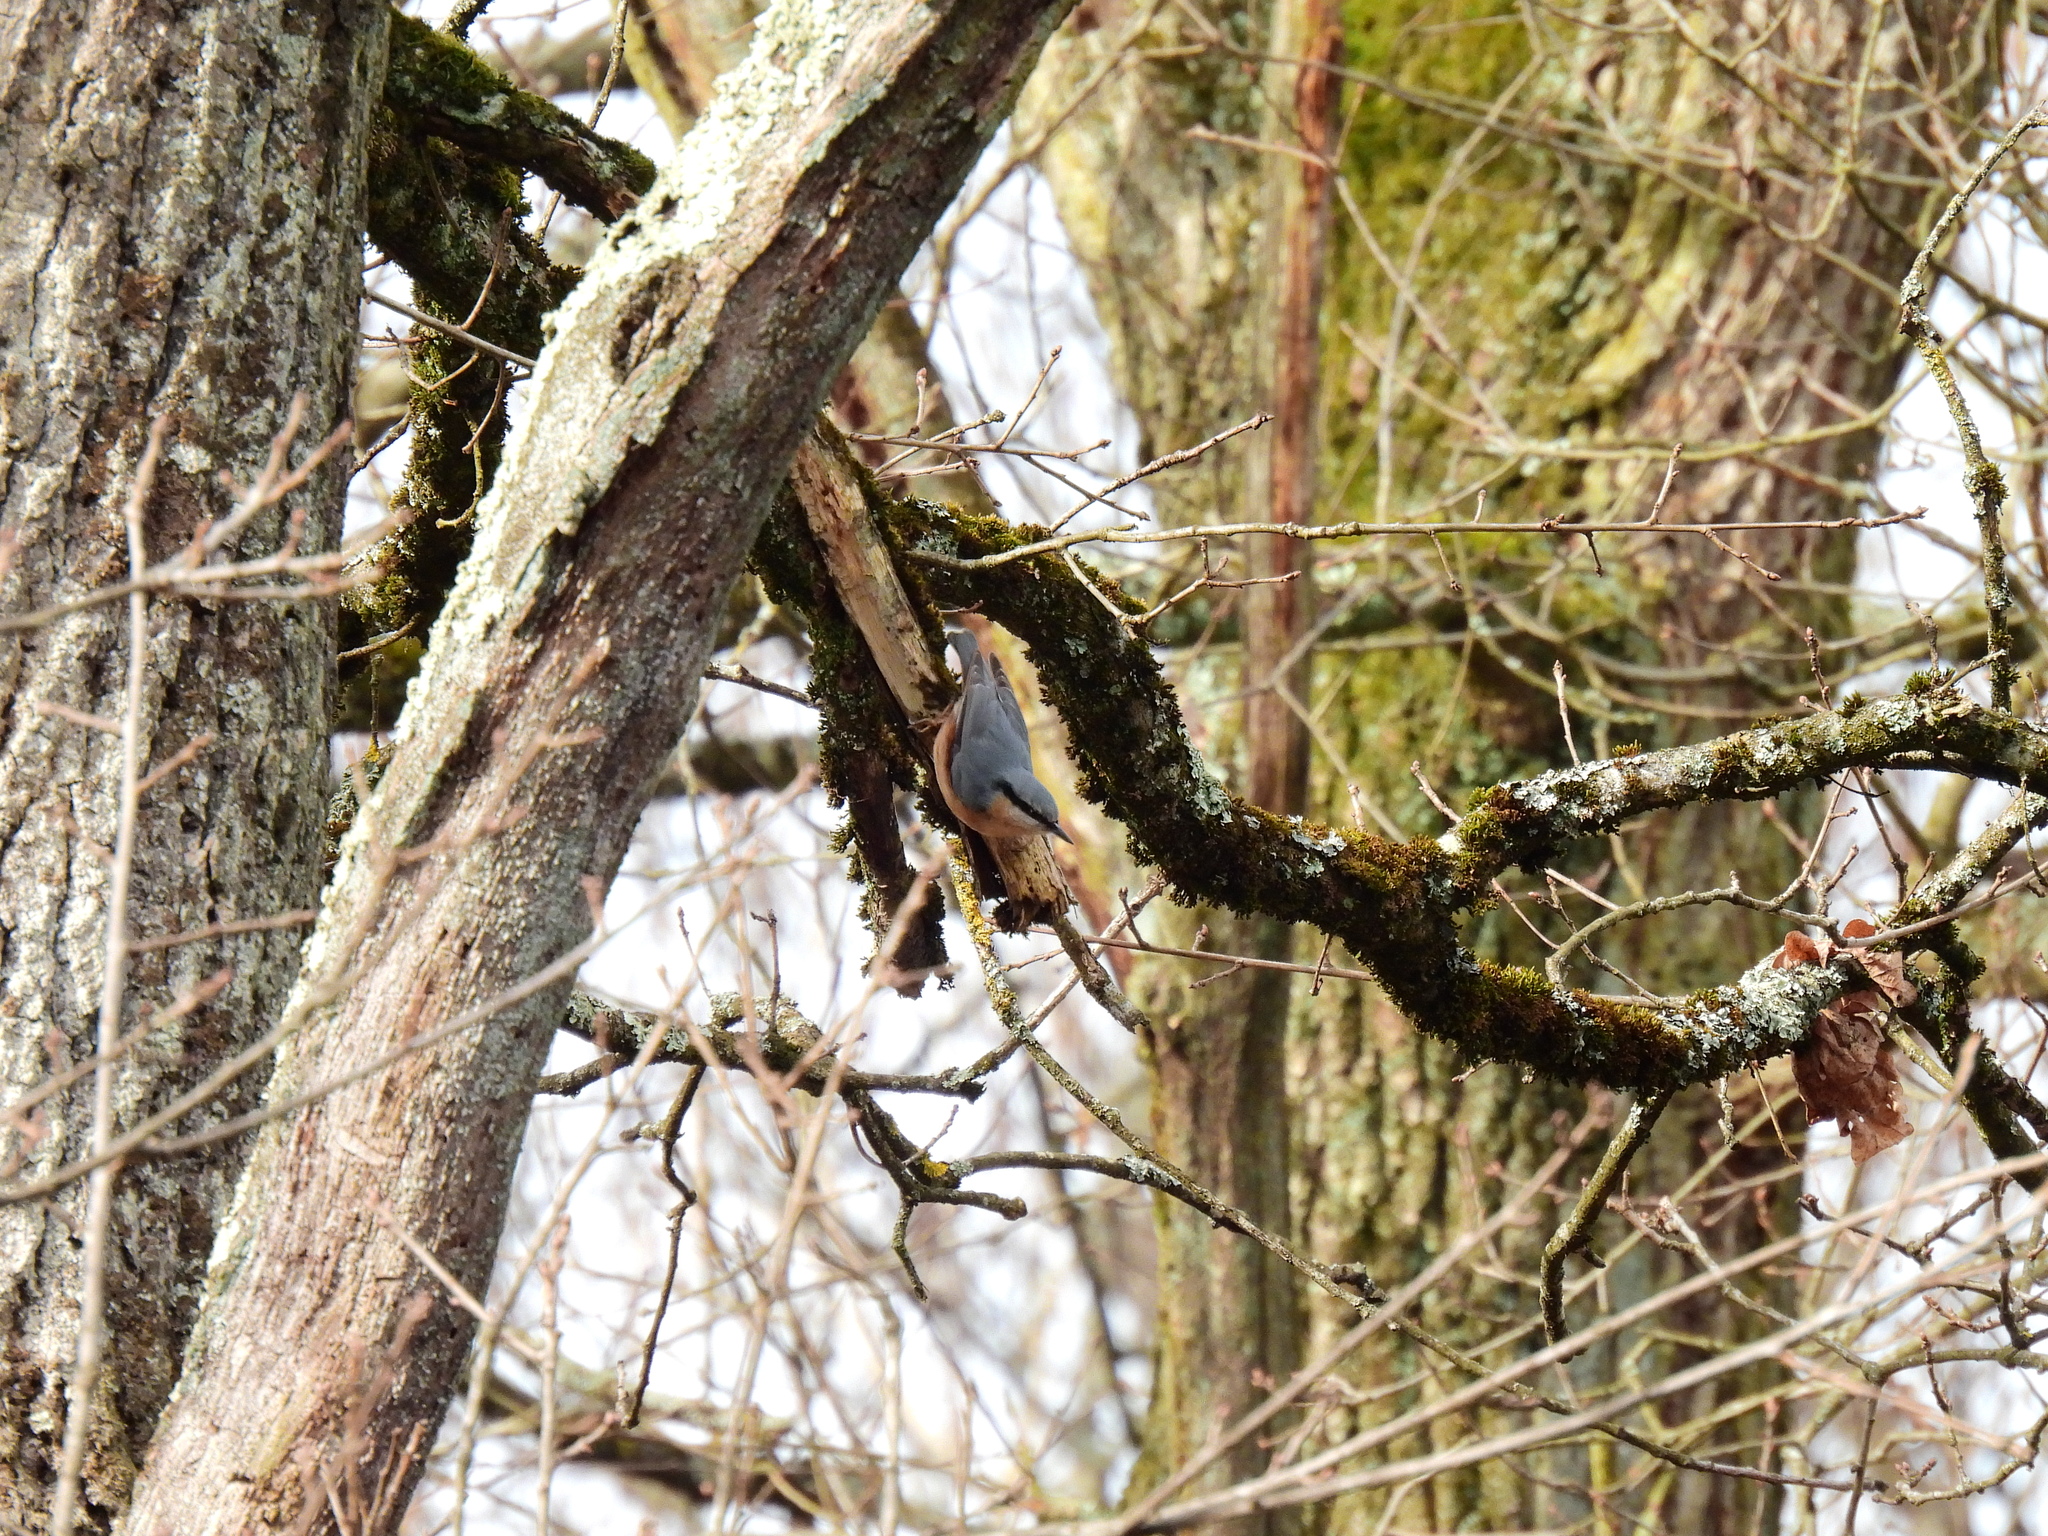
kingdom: Animalia
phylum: Chordata
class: Aves
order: Passeriformes
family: Sittidae
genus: Sitta
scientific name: Sitta europaea
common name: Eurasian nuthatch
